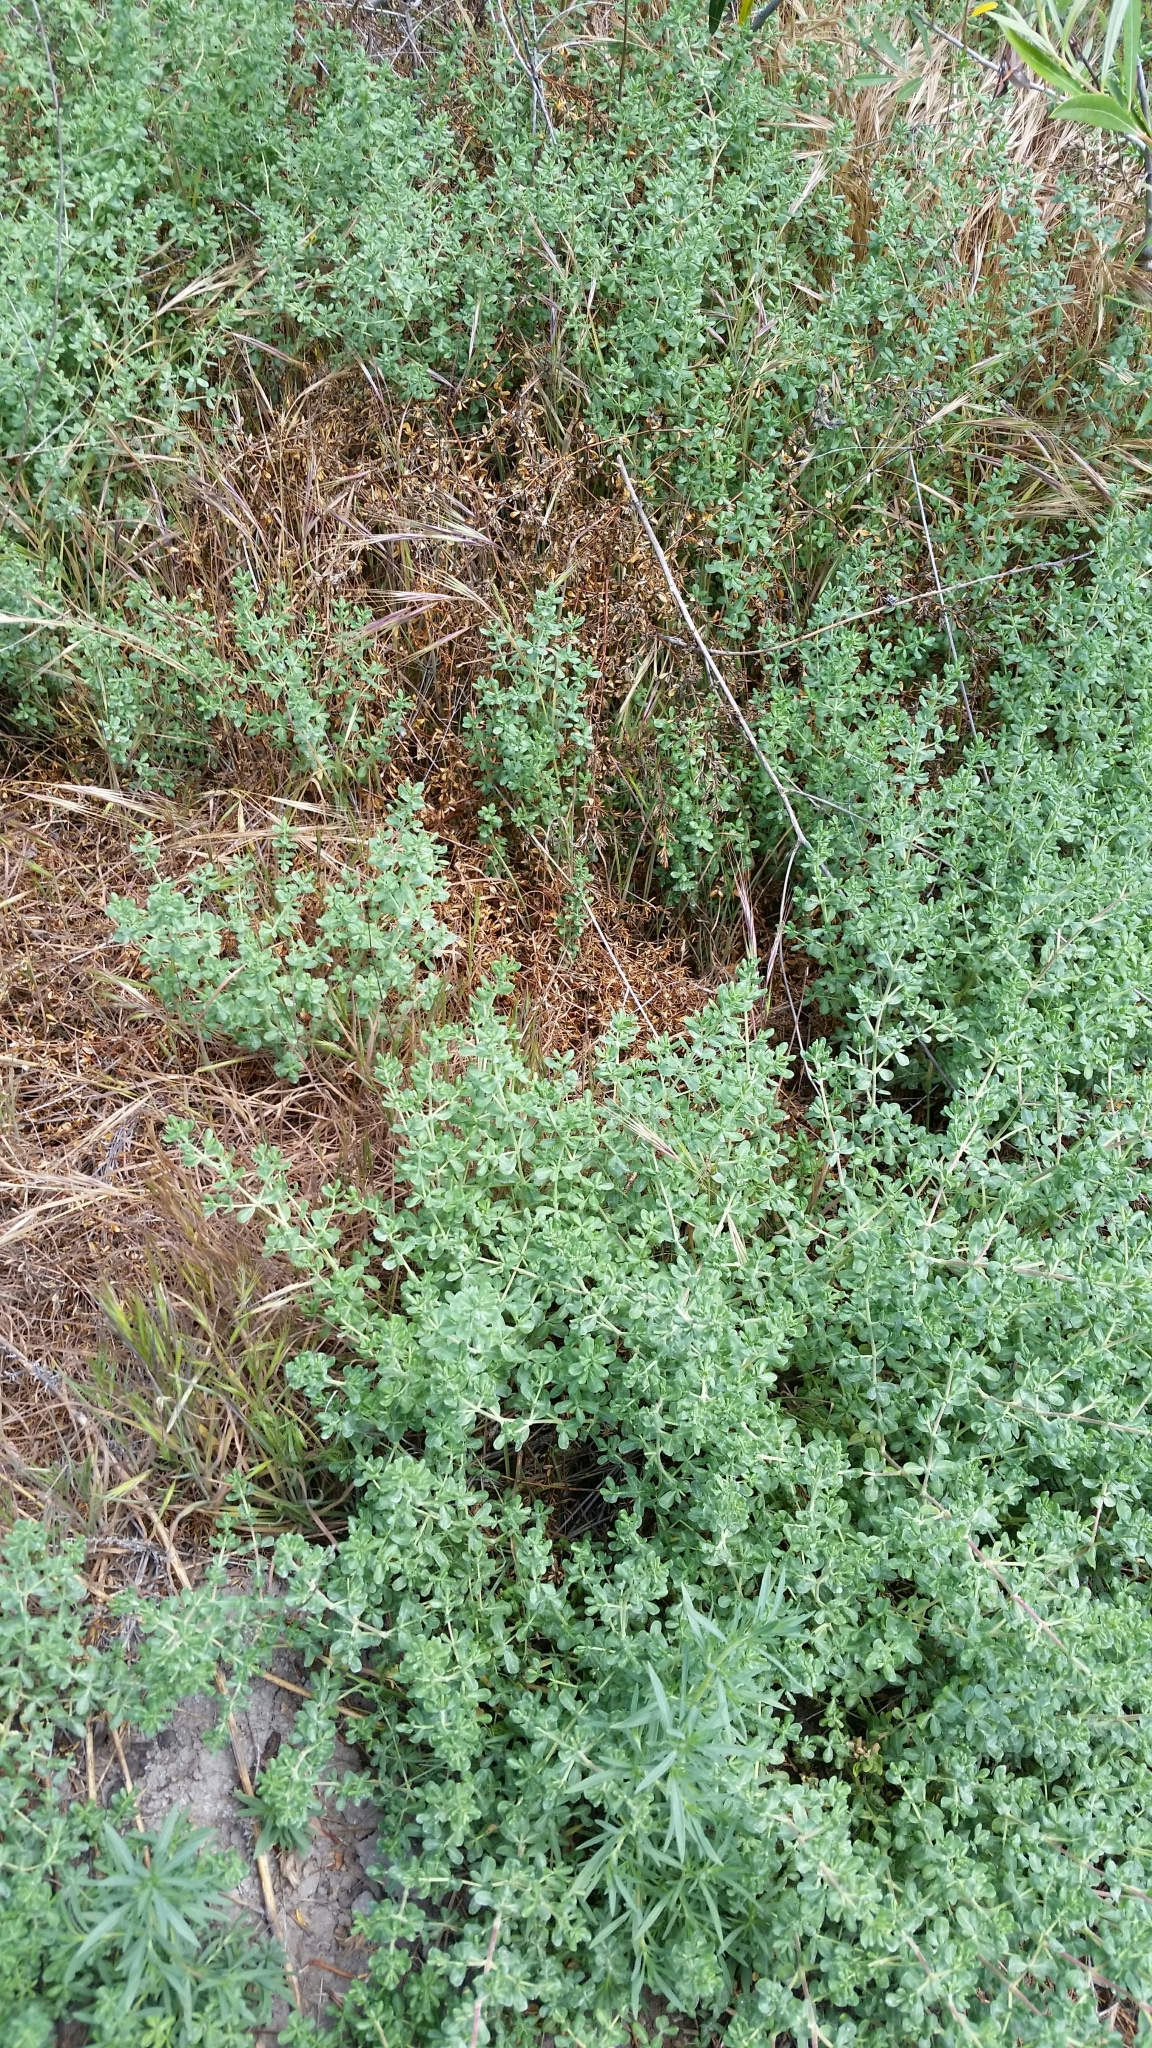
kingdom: Plantae
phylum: Tracheophyta
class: Magnoliopsida
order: Caryophyllales
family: Frankeniaceae
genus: Frankenia
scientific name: Frankenia salina
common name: Alkali seaheath
